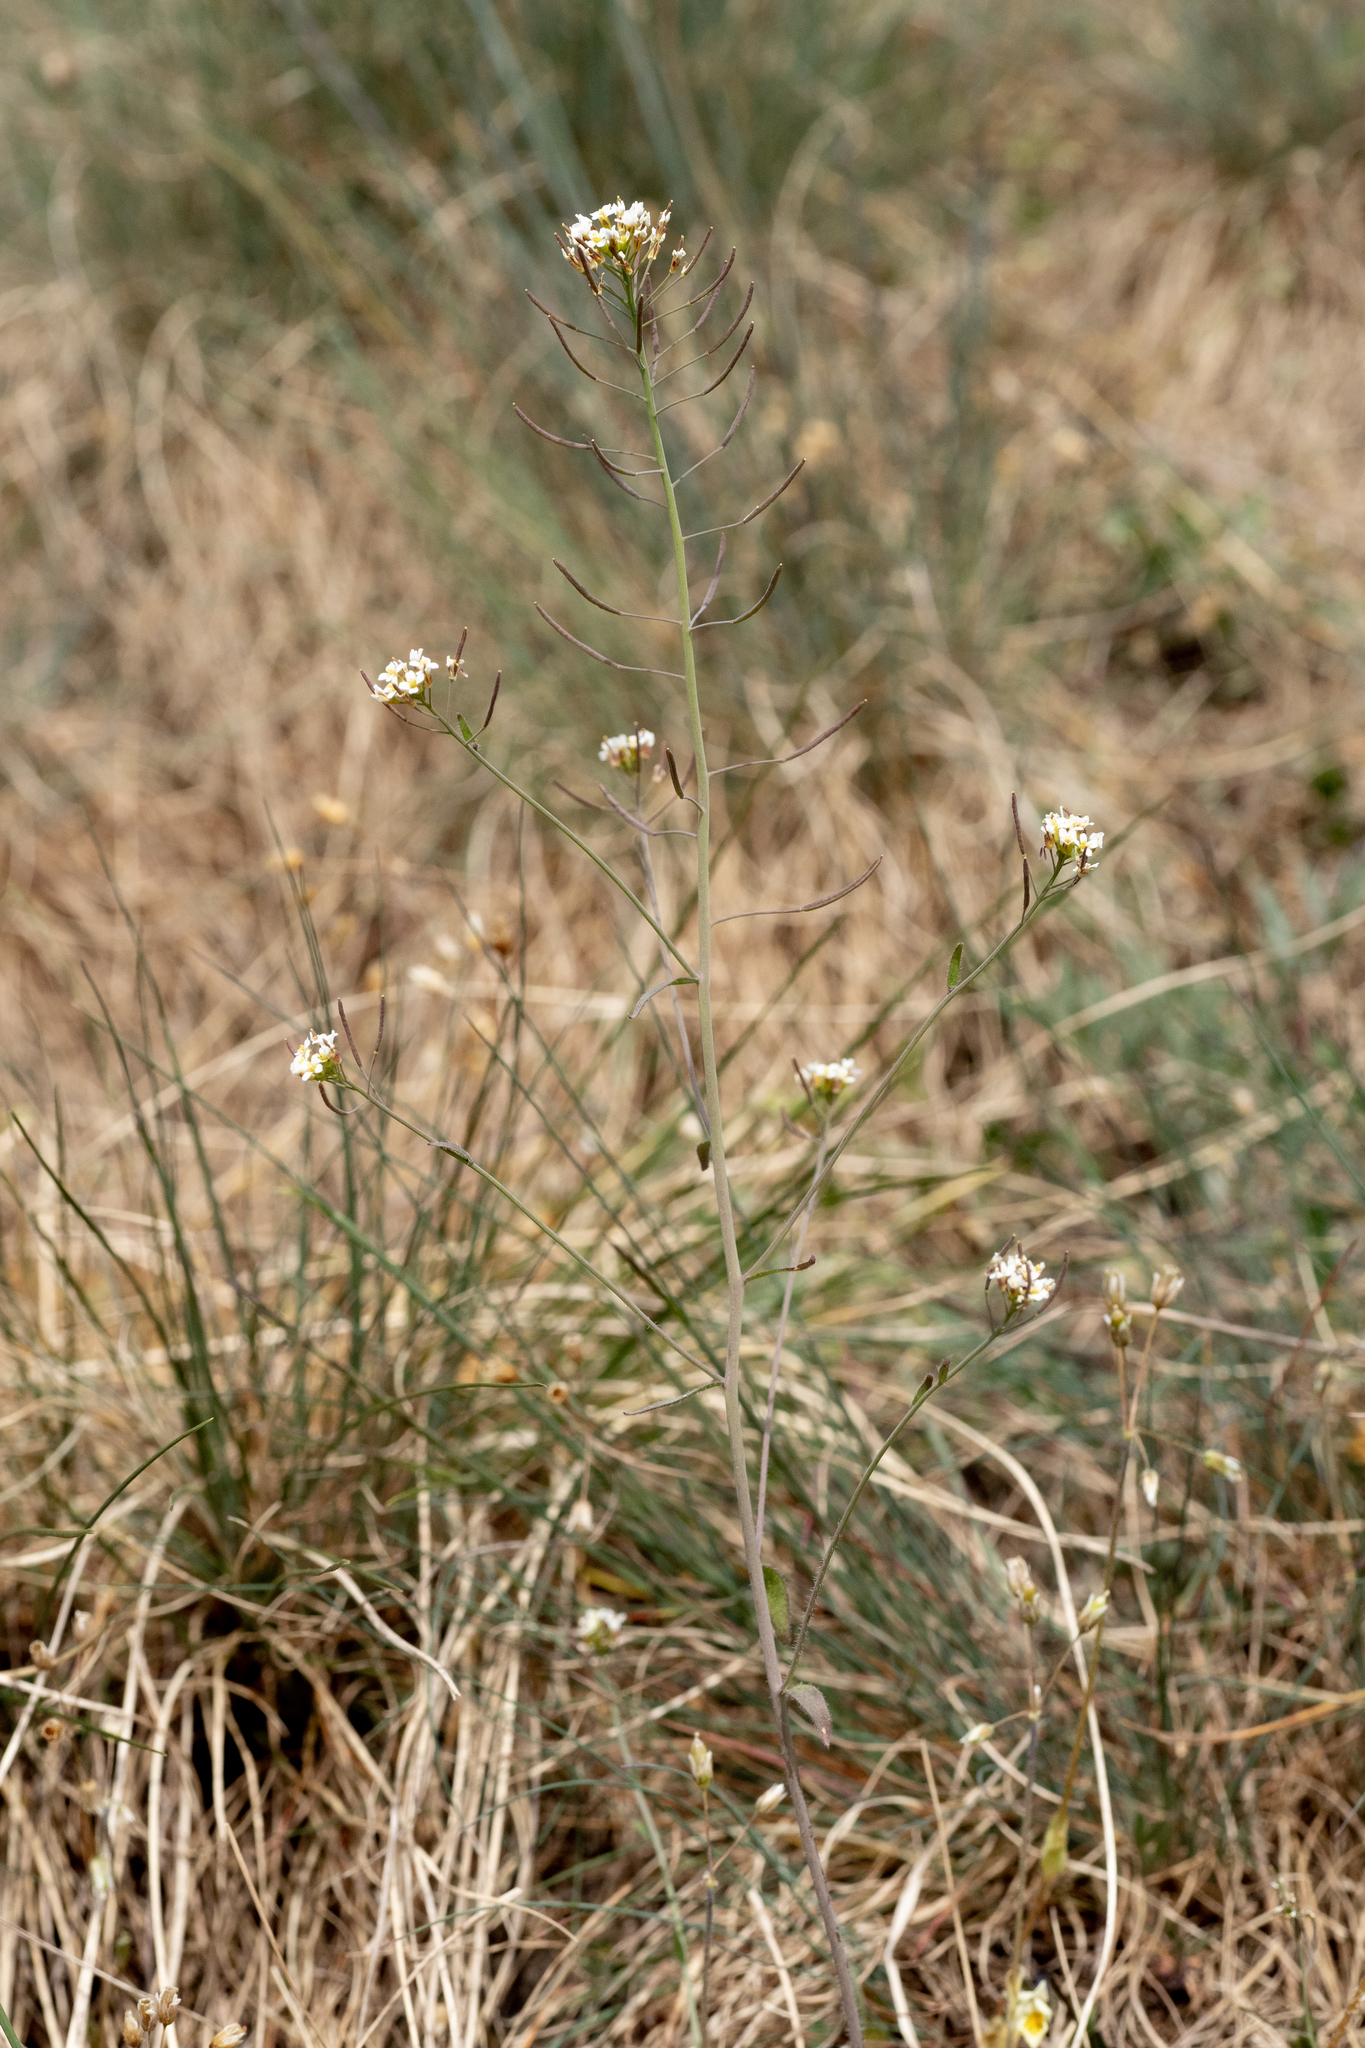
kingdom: Plantae
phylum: Tracheophyta
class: Magnoliopsida
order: Brassicales
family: Brassicaceae
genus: Arabidopsis
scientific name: Arabidopsis thaliana
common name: Thale cress
